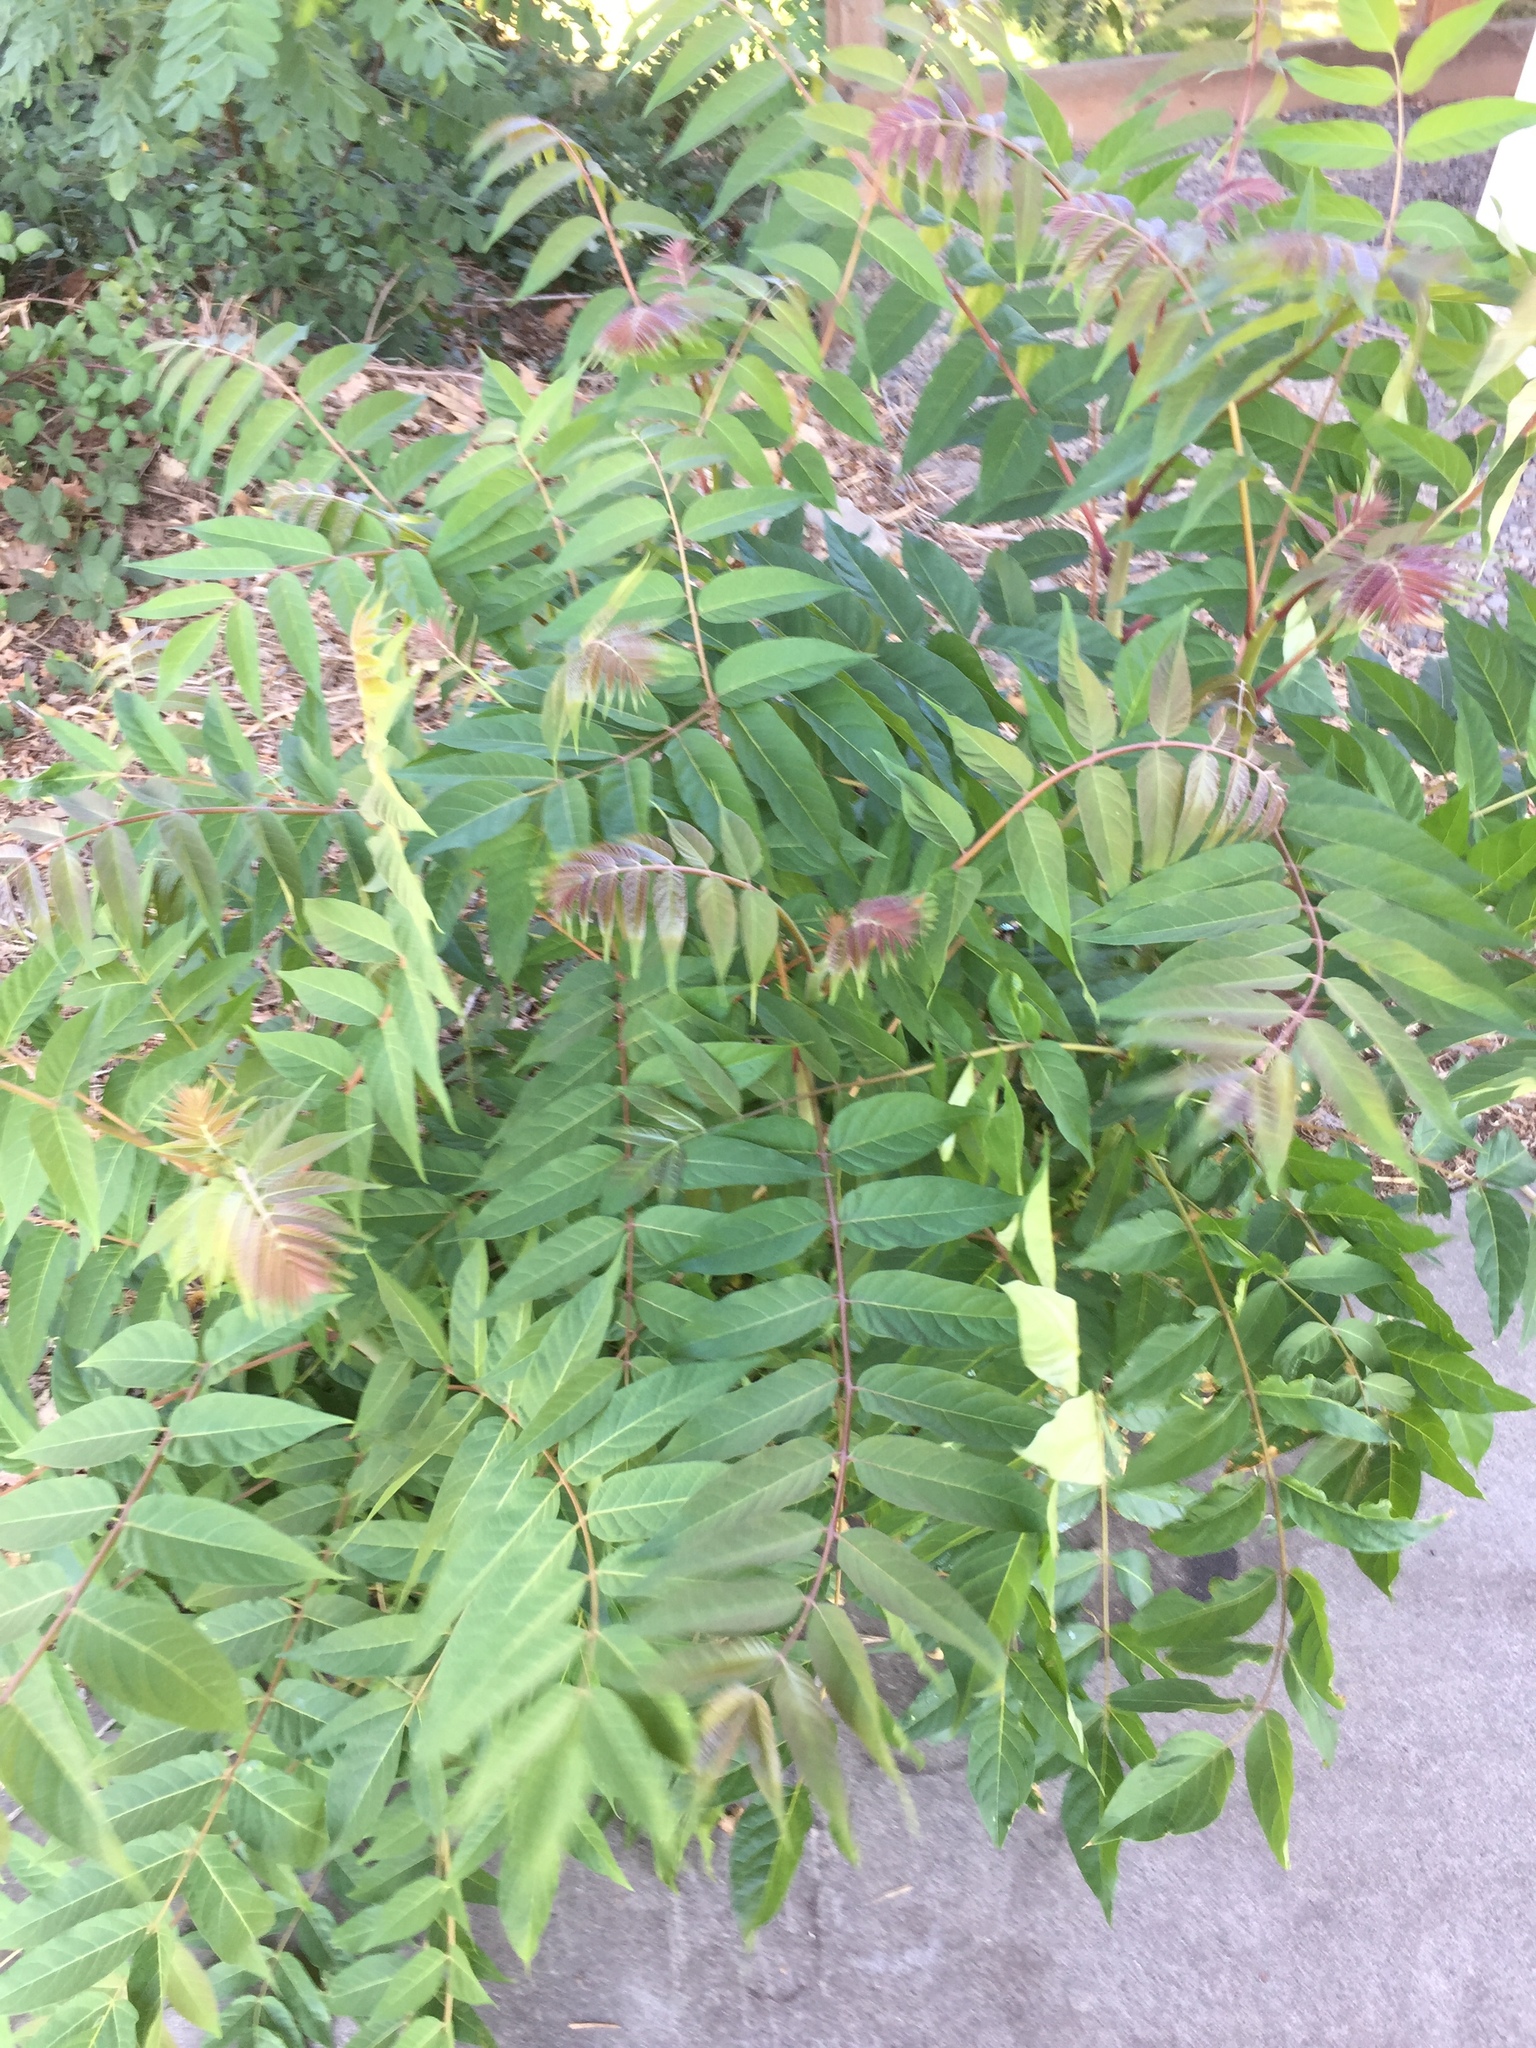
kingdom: Plantae
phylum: Tracheophyta
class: Magnoliopsida
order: Sapindales
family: Simaroubaceae
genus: Ailanthus
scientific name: Ailanthus altissima
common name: Tree-of-heaven
